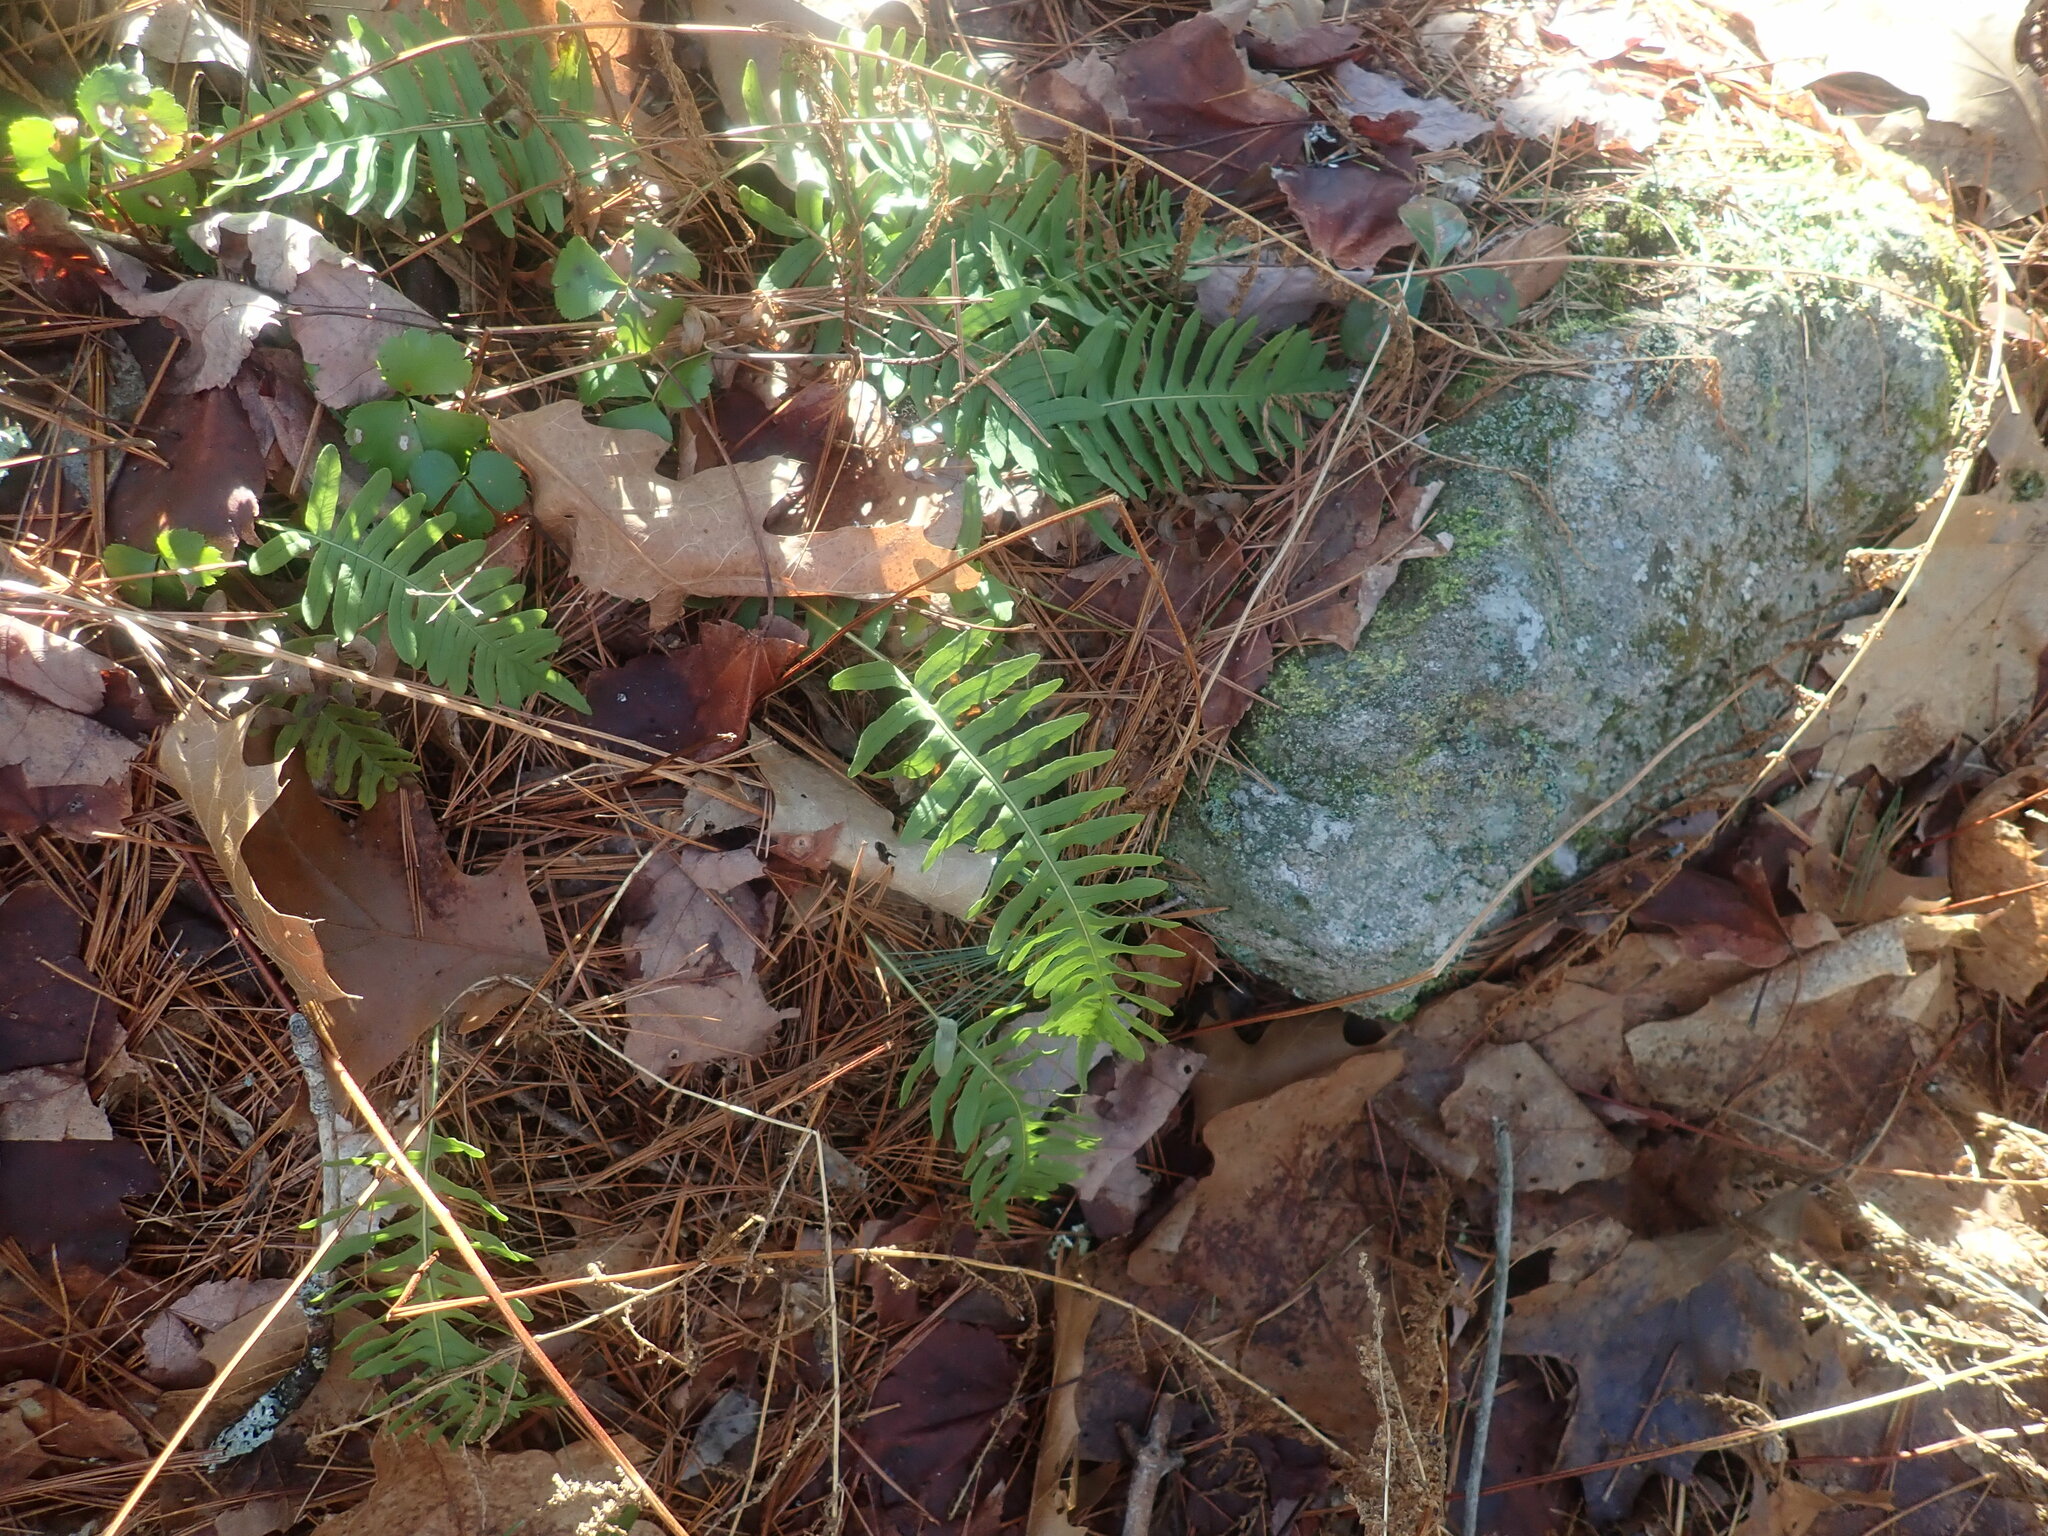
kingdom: Plantae
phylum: Tracheophyta
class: Polypodiopsida
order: Polypodiales
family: Polypodiaceae
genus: Polypodium
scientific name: Polypodium
